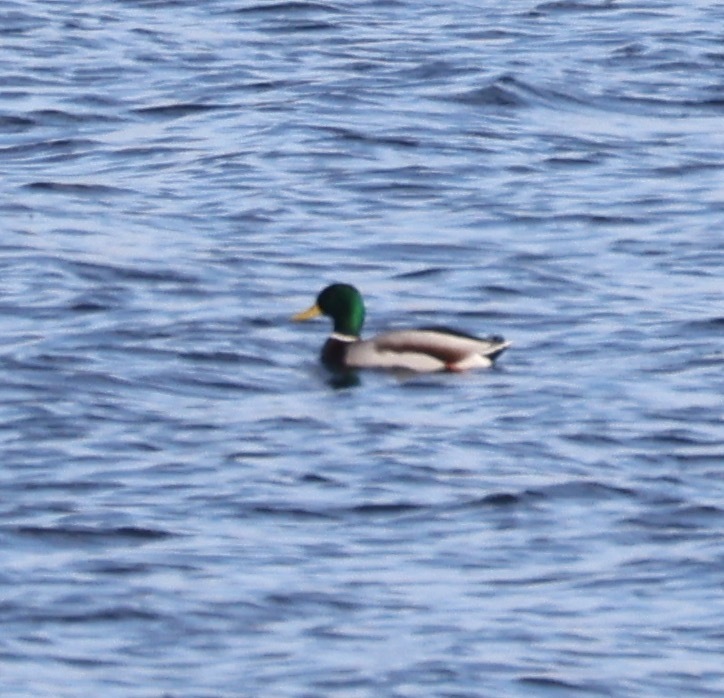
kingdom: Animalia
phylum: Chordata
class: Aves
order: Anseriformes
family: Anatidae
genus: Anas
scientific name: Anas platyrhynchos
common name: Mallard
